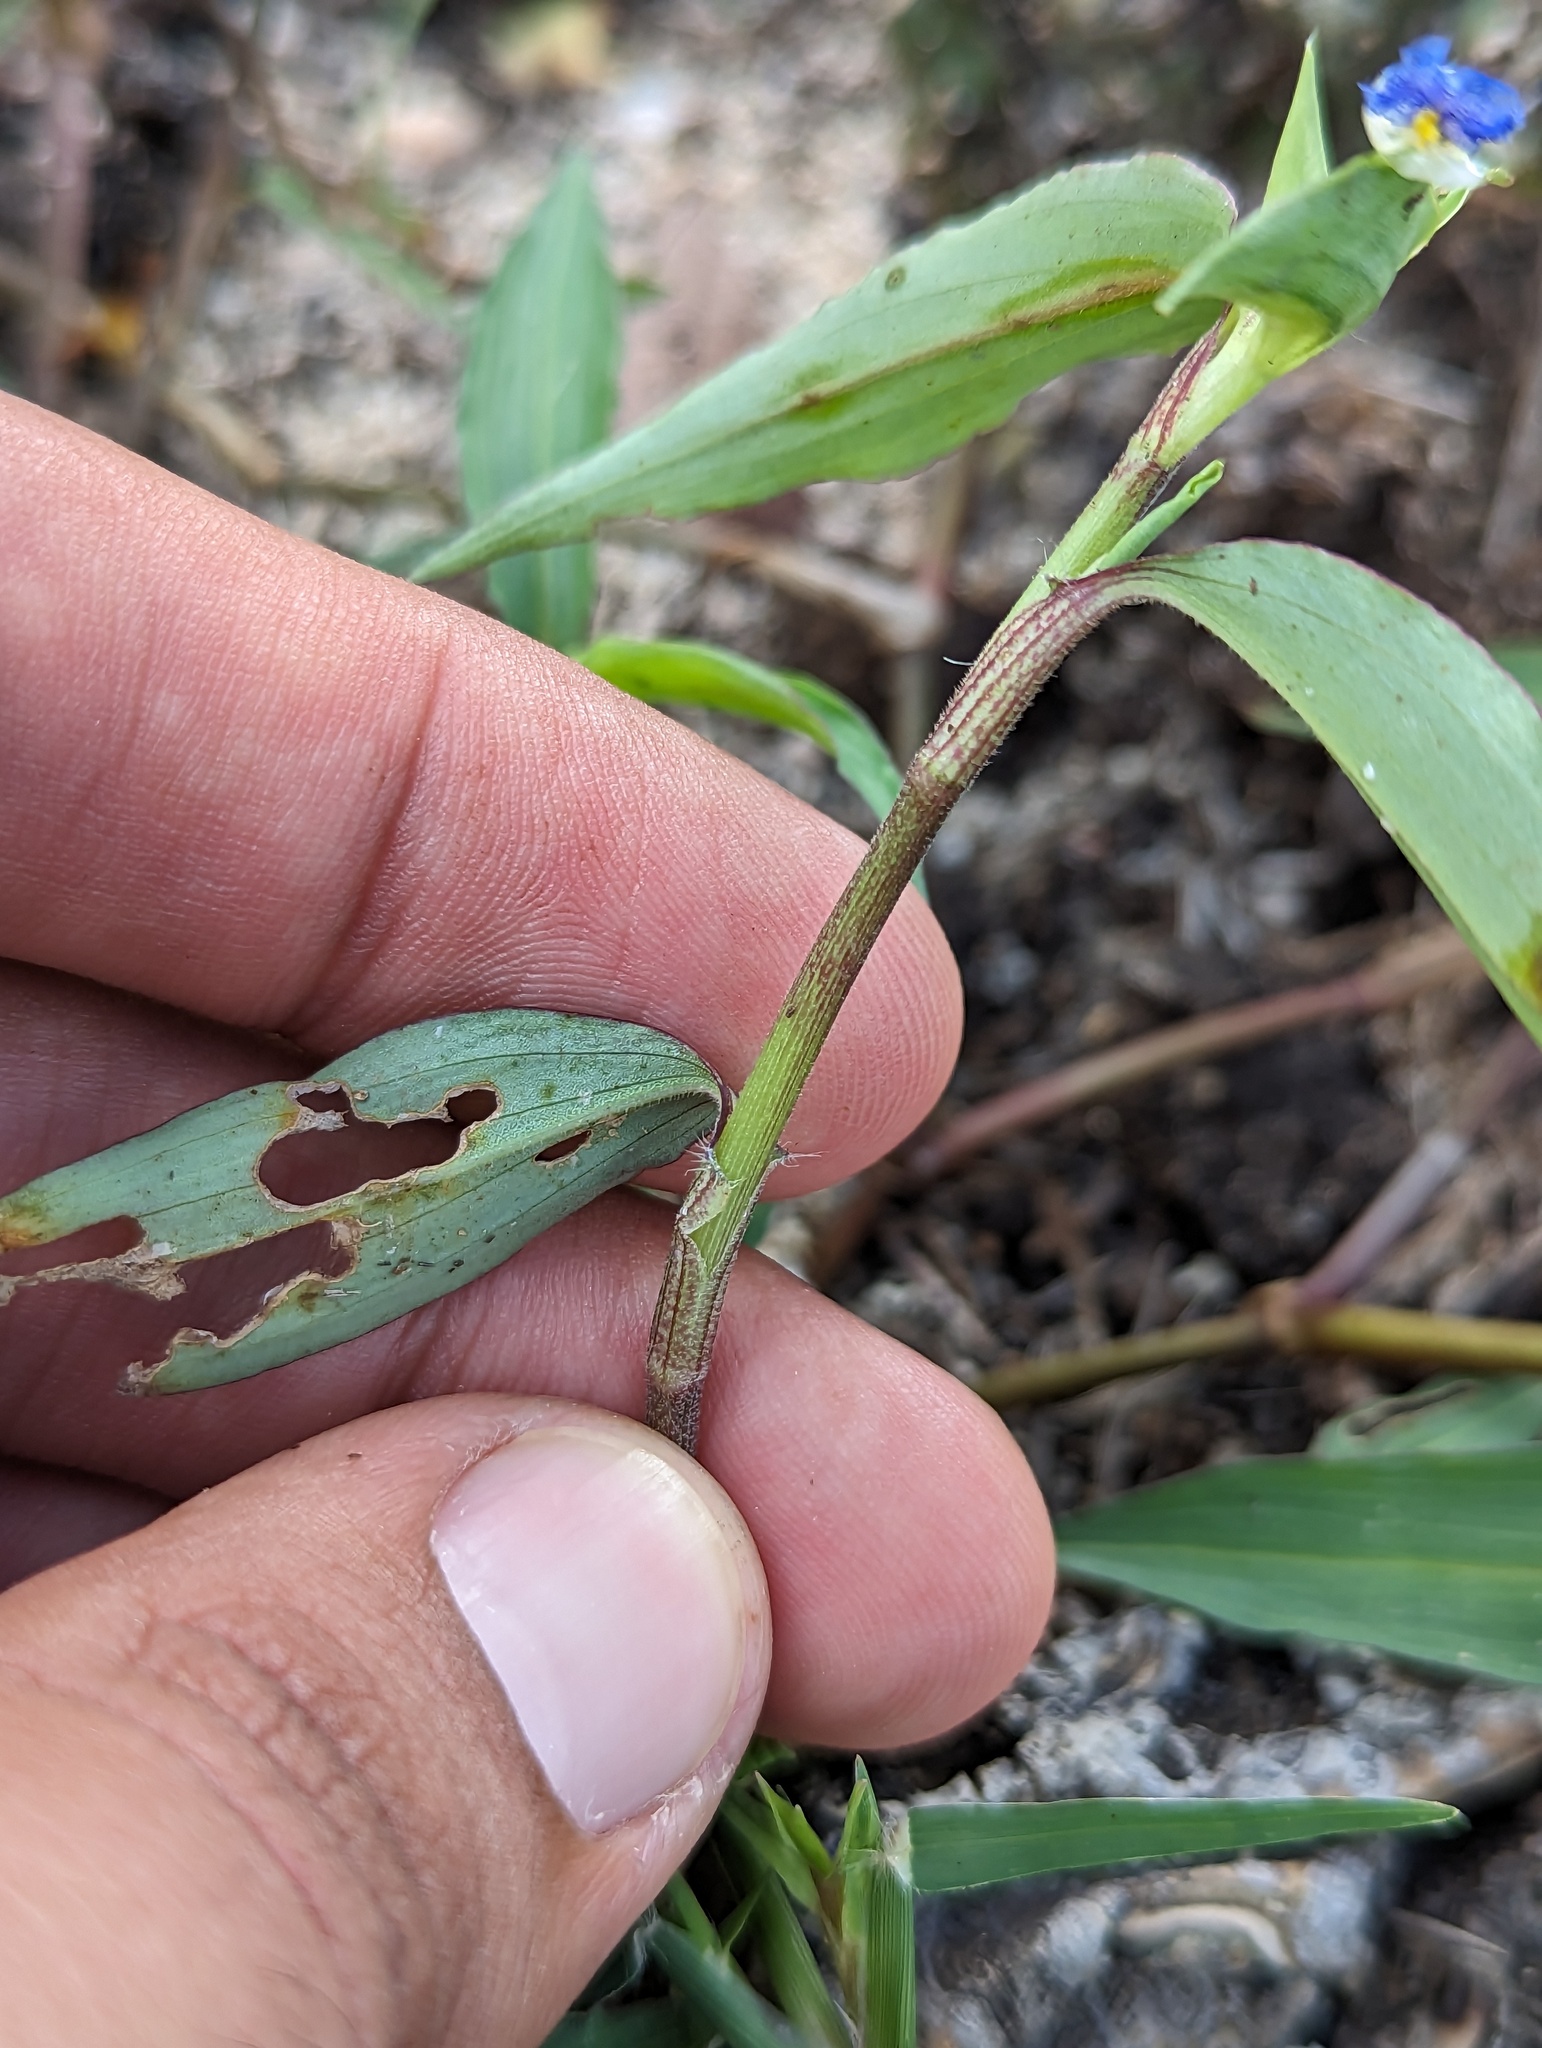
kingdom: Plantae
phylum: Tracheophyta
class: Liliopsida
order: Commelinales
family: Commelinaceae
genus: Commelina
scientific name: Commelina erecta
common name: Blousel blommetjie
